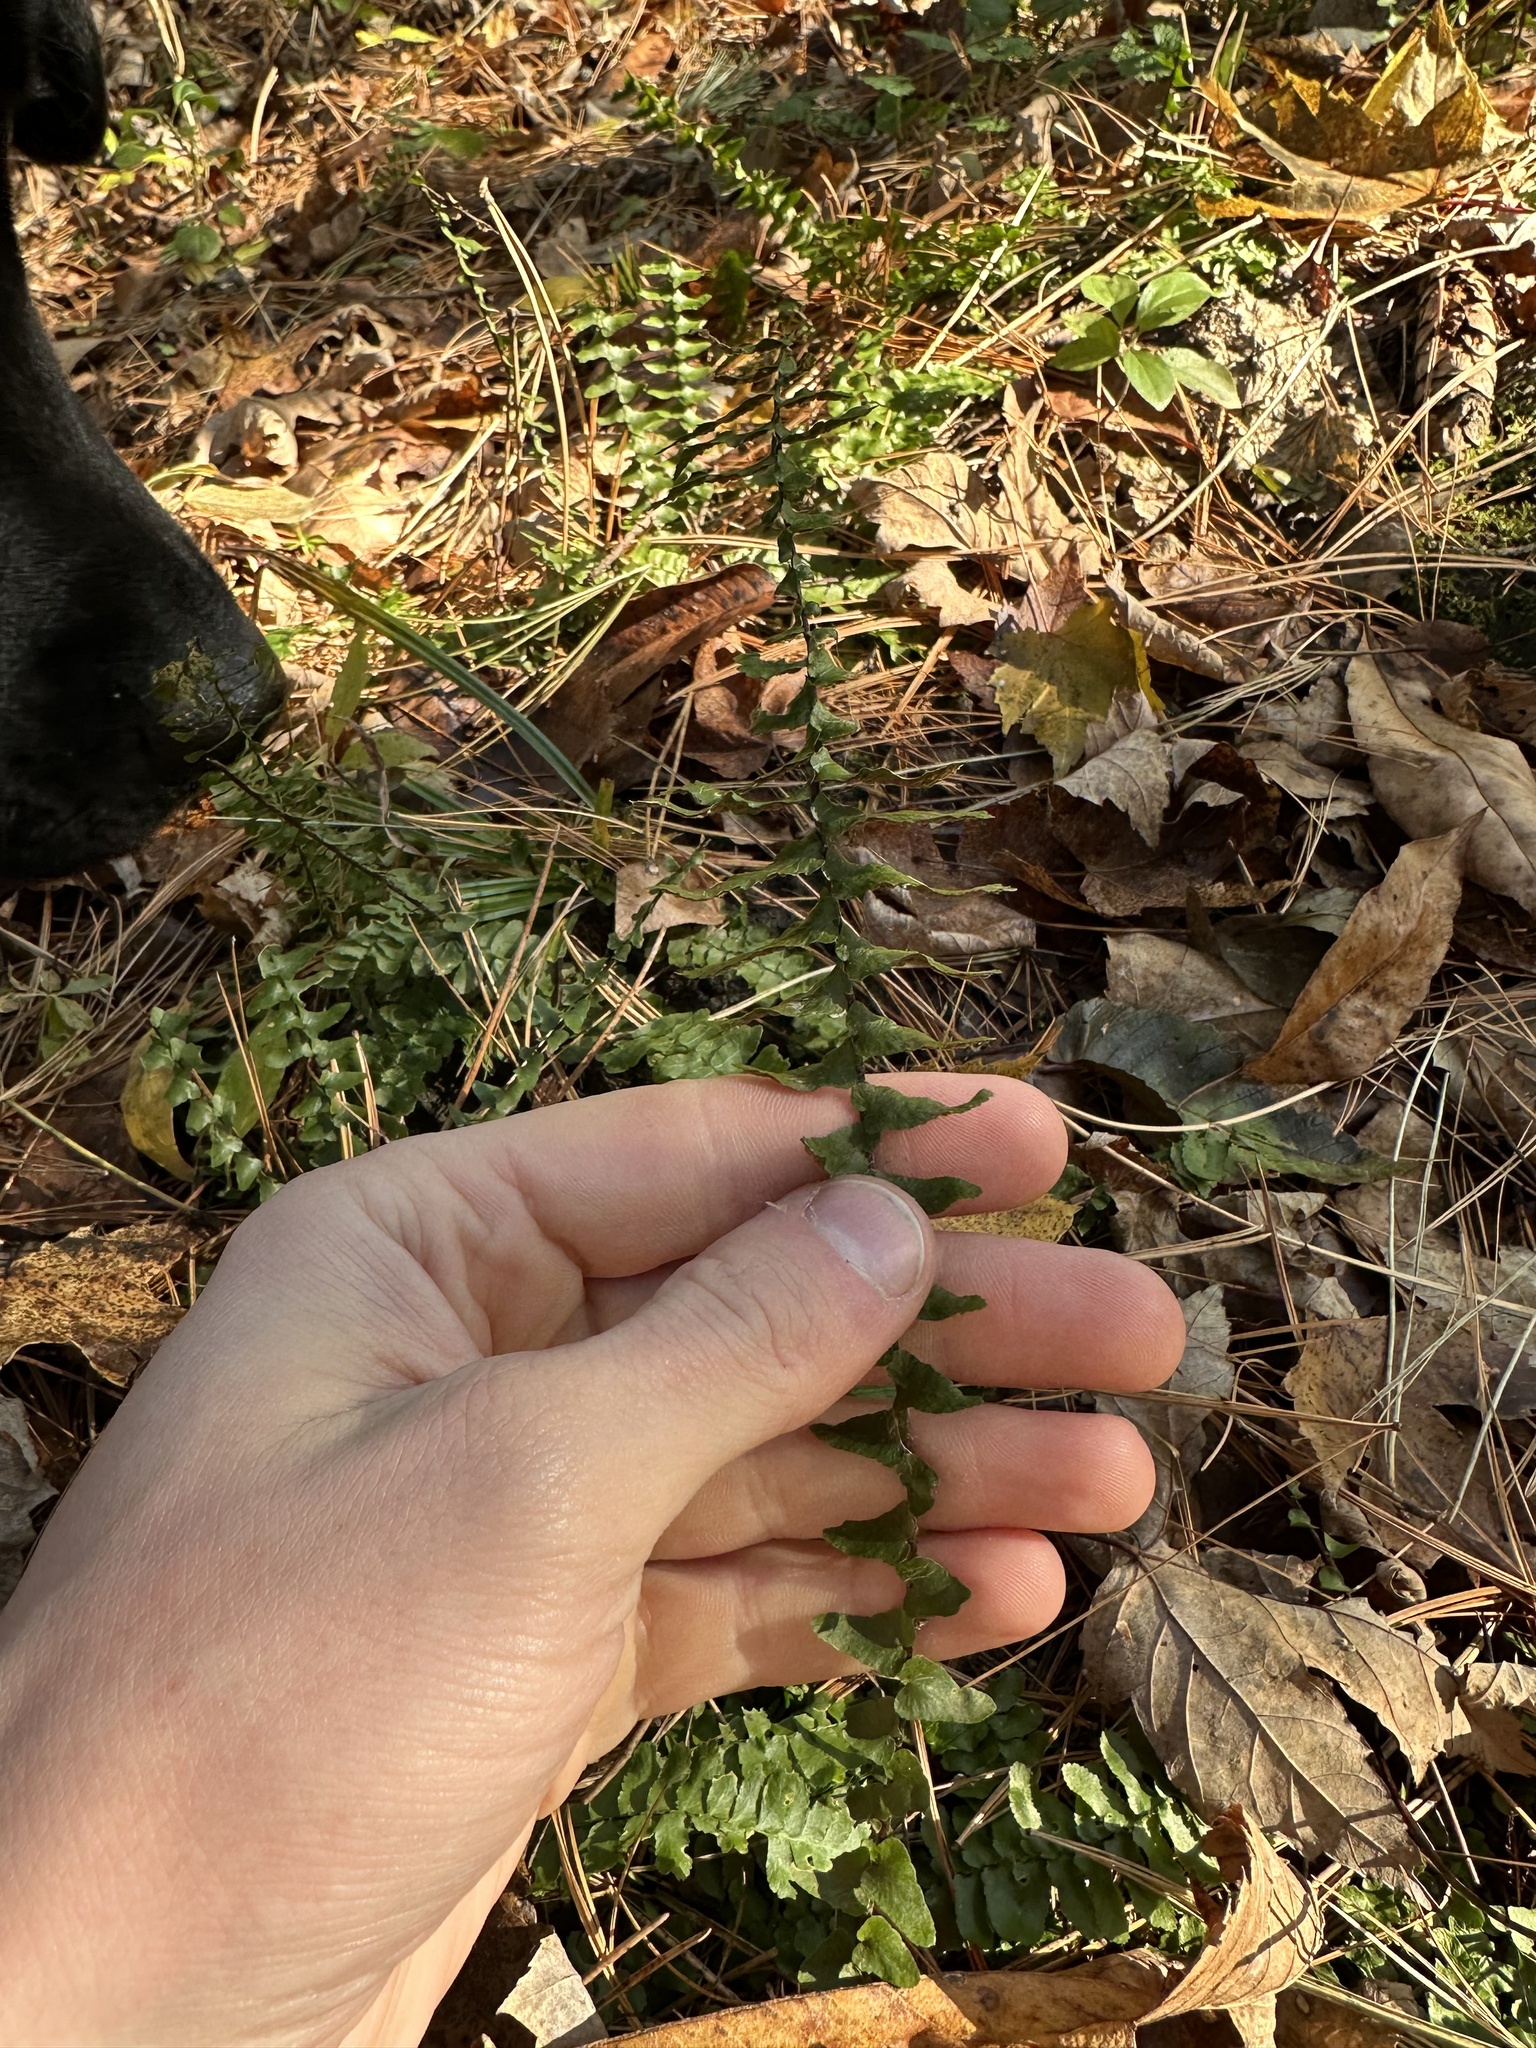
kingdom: Plantae
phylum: Tracheophyta
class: Polypodiopsida
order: Polypodiales
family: Aspleniaceae
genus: Asplenium
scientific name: Asplenium platyneuron
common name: Ebony spleenwort
